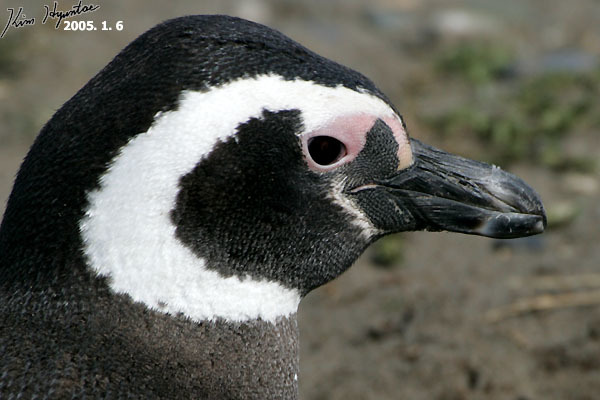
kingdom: Animalia
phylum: Chordata
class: Aves
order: Sphenisciformes
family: Spheniscidae
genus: Spheniscus
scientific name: Spheniscus magellanicus
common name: Magellanic penguin
